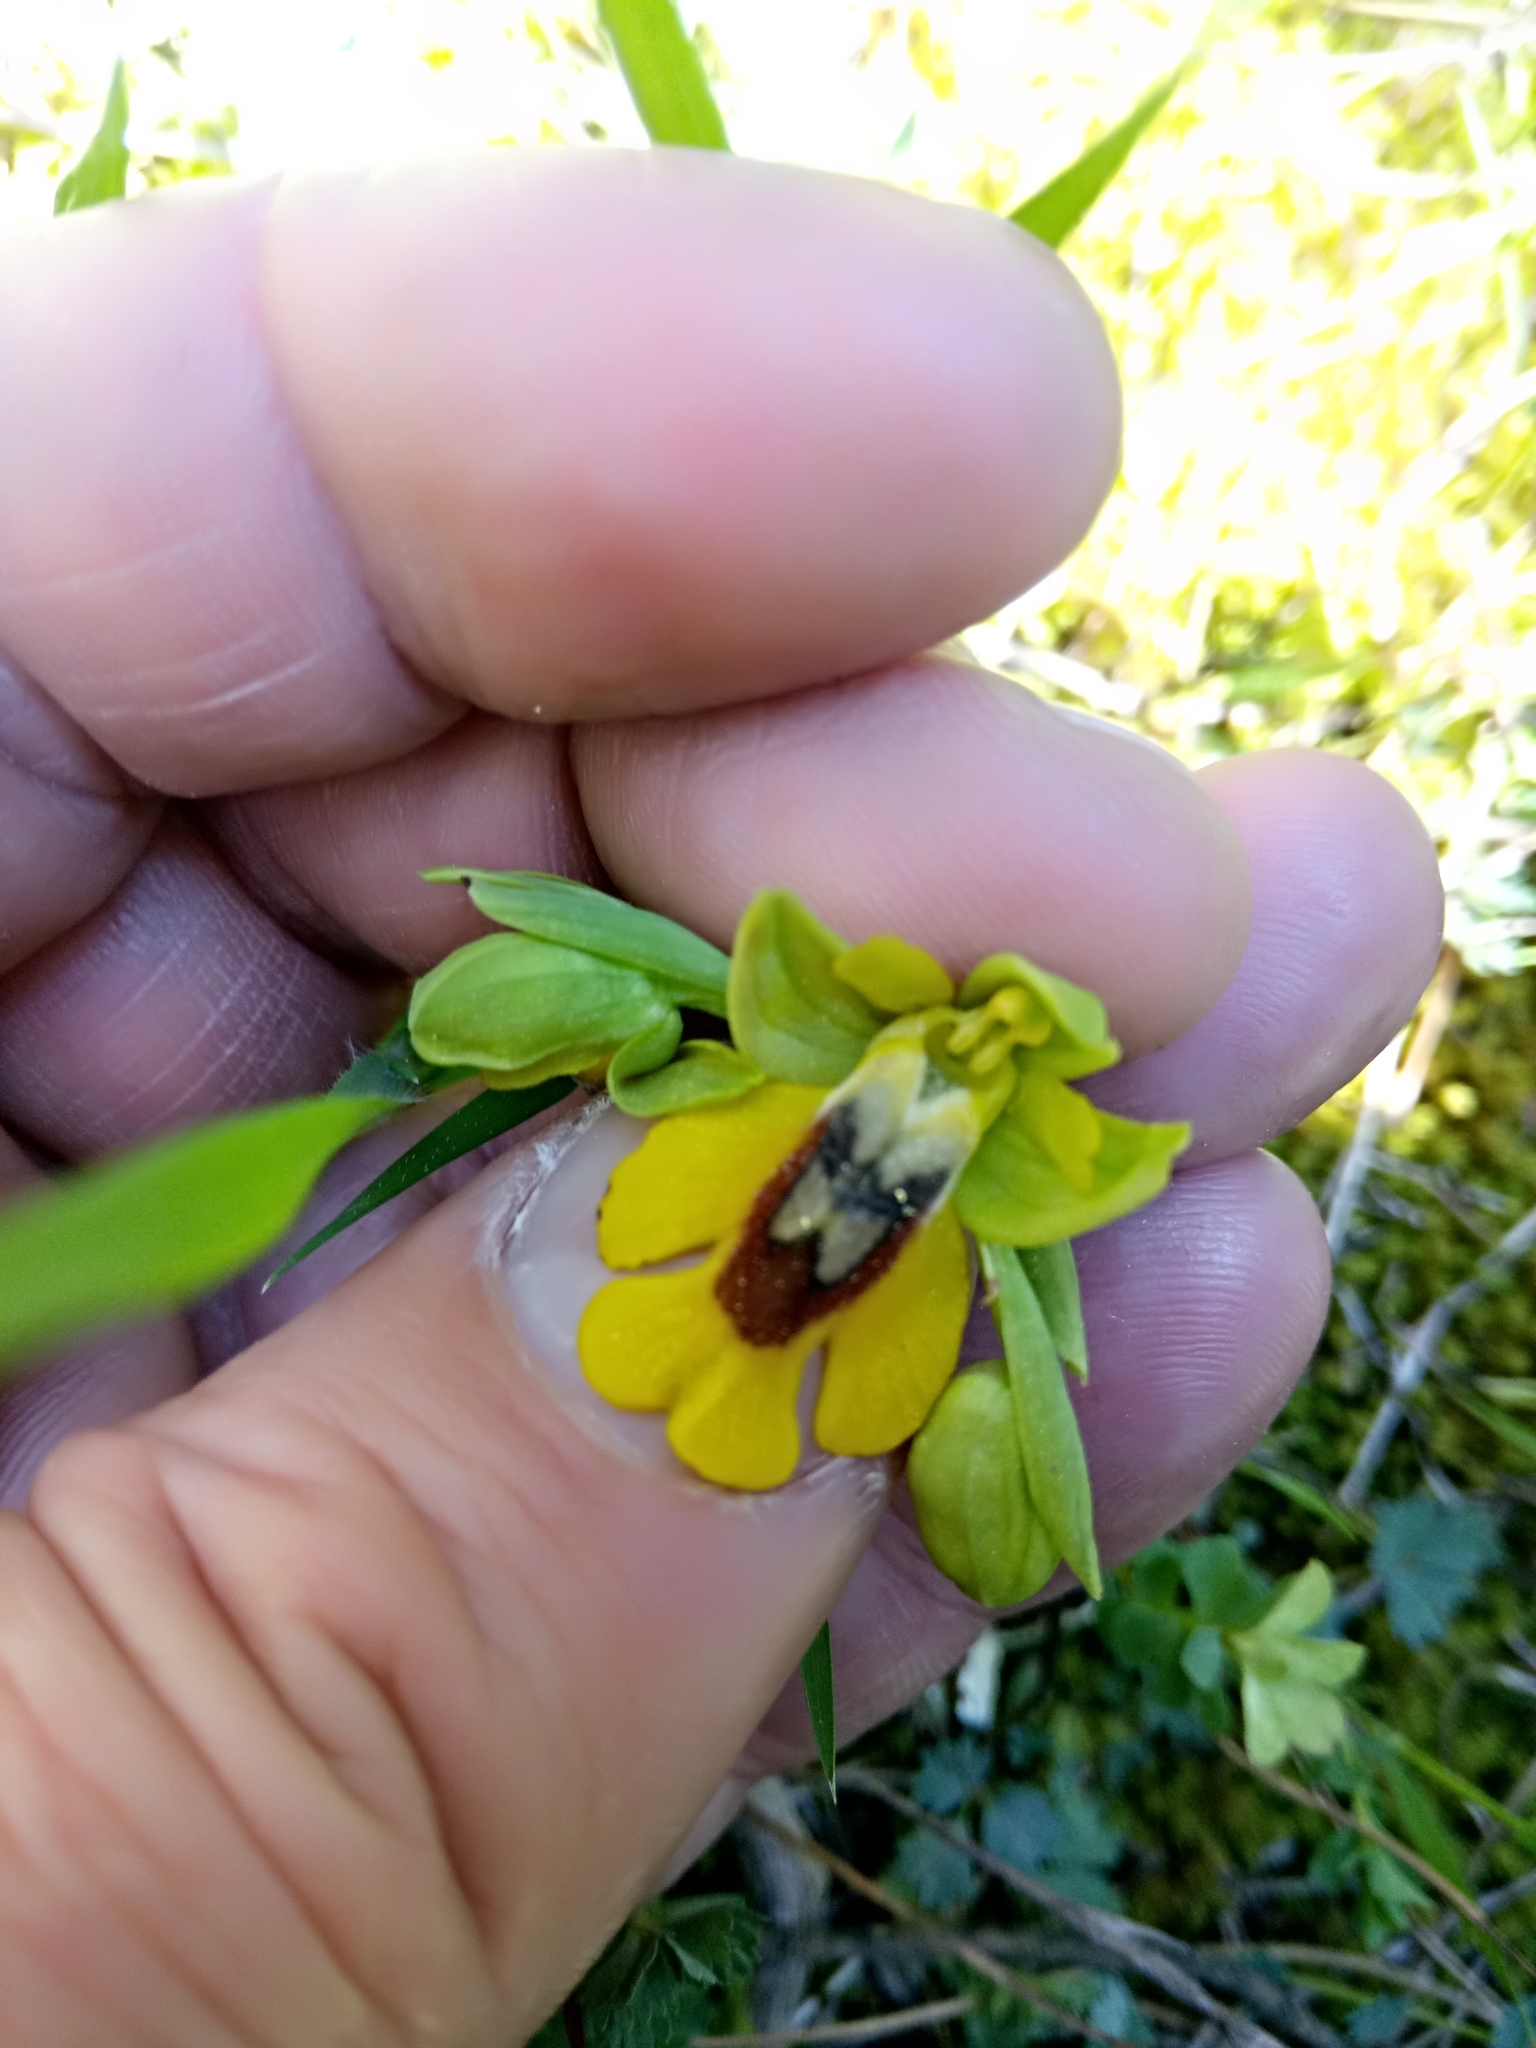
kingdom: Plantae
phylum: Tracheophyta
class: Liliopsida
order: Asparagales
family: Orchidaceae
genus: Ophrys
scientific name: Ophrys lutea
